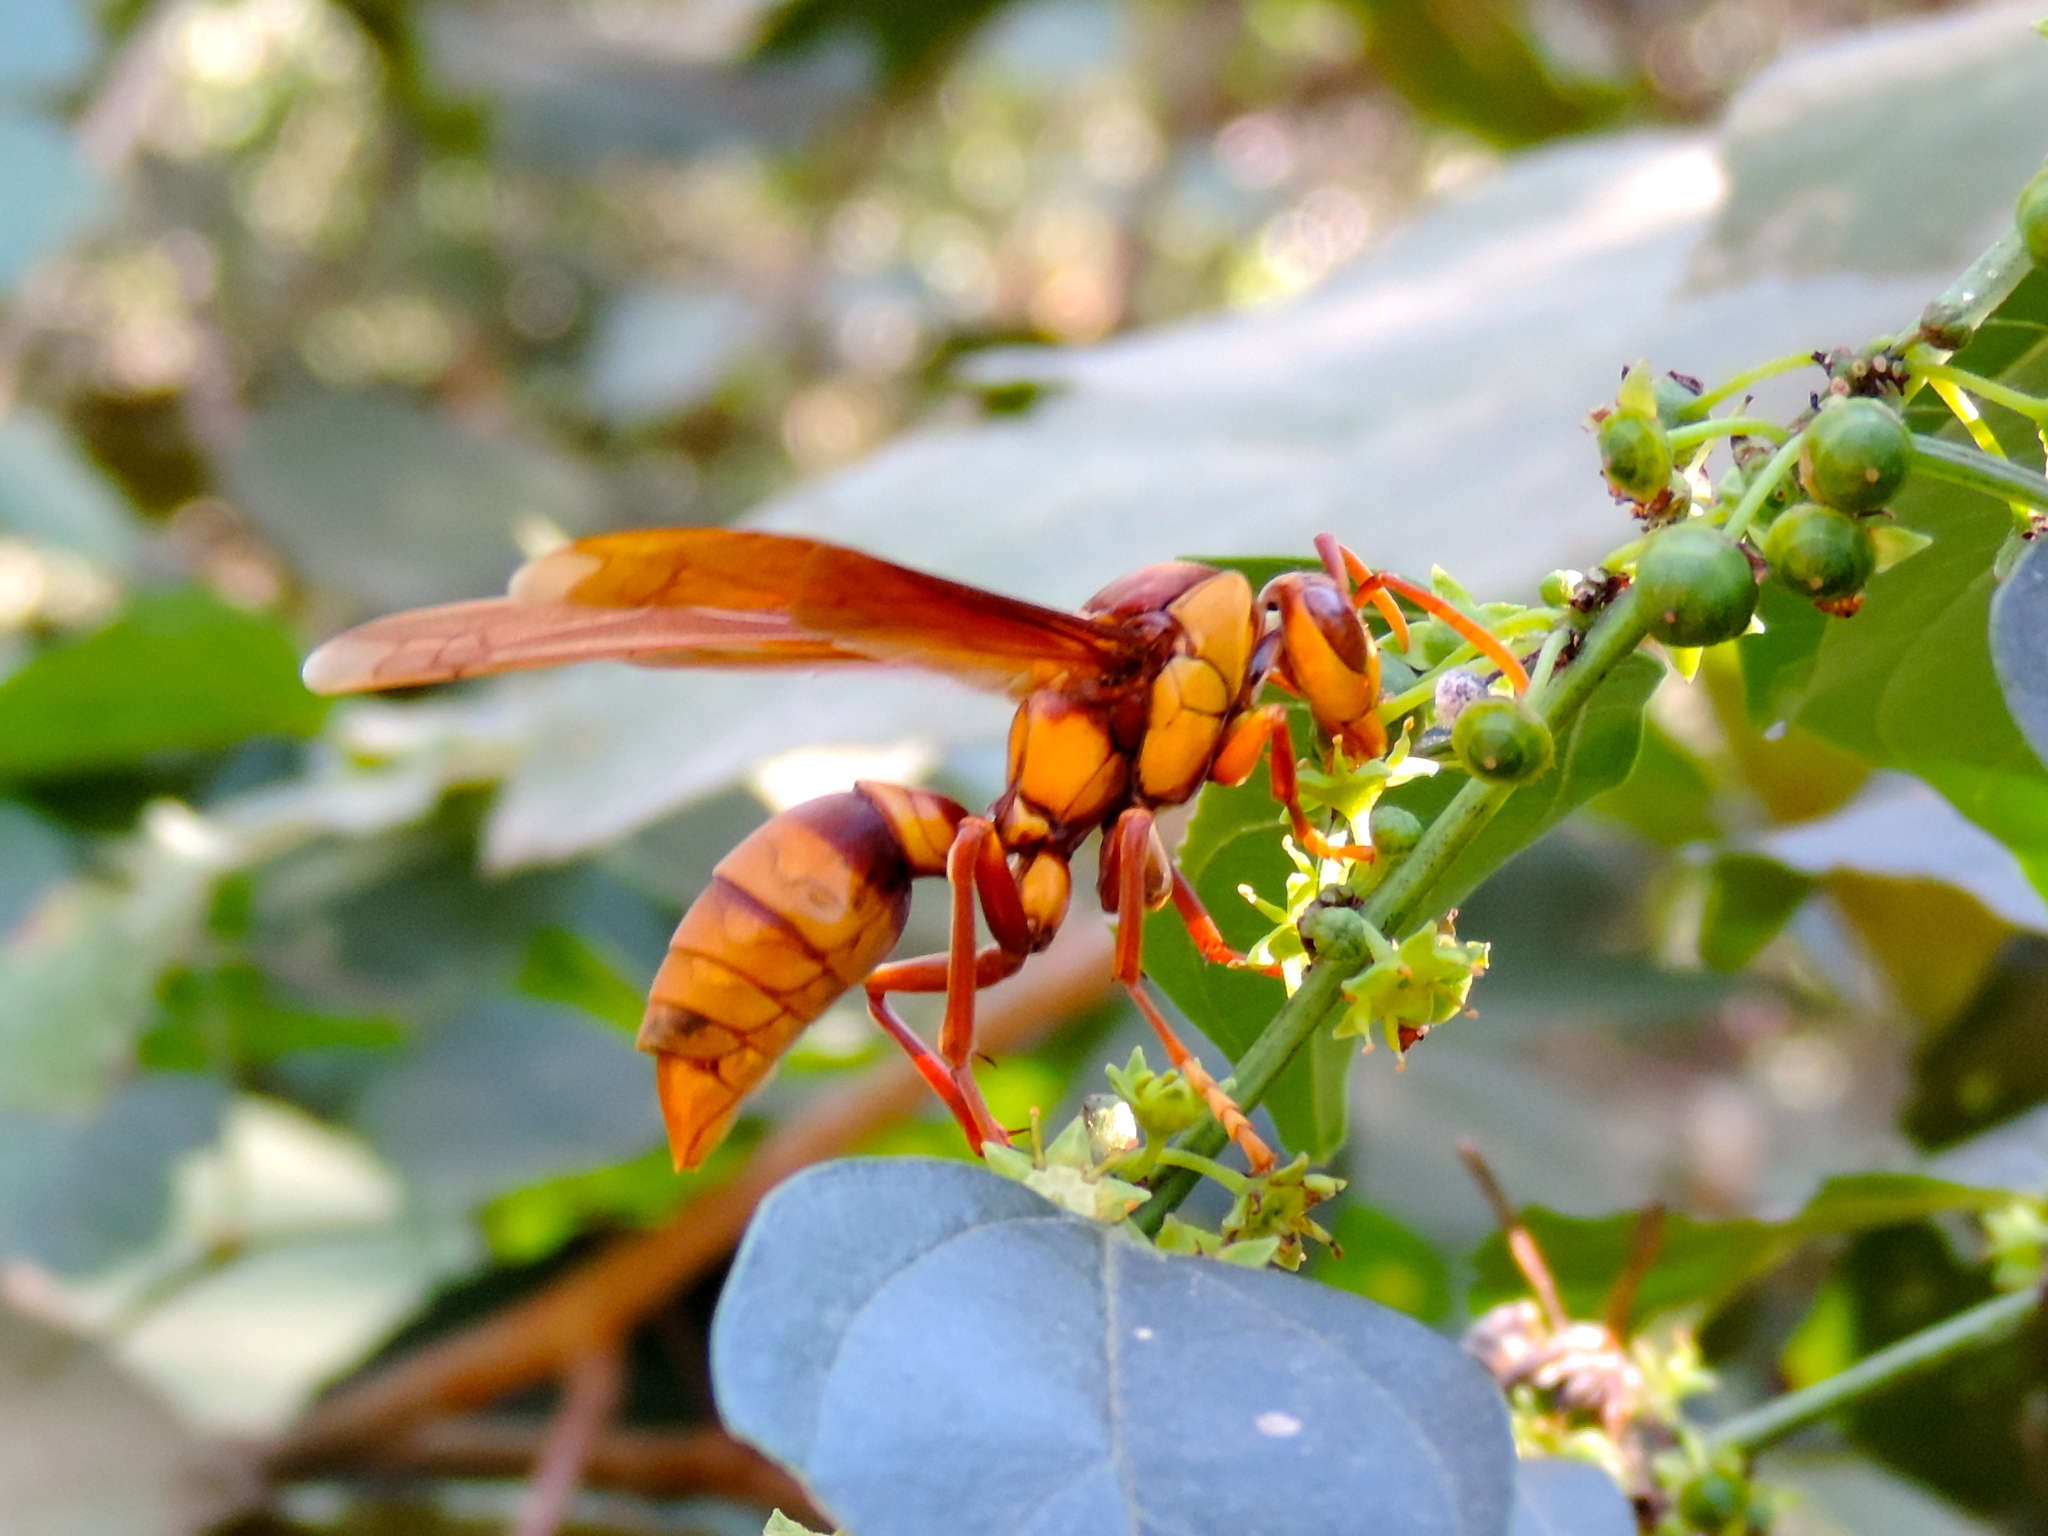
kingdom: Animalia
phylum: Arthropoda
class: Insecta
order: Hymenoptera
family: Eumenidae
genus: Polistes
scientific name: Polistes carnifex
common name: Paper wasp
